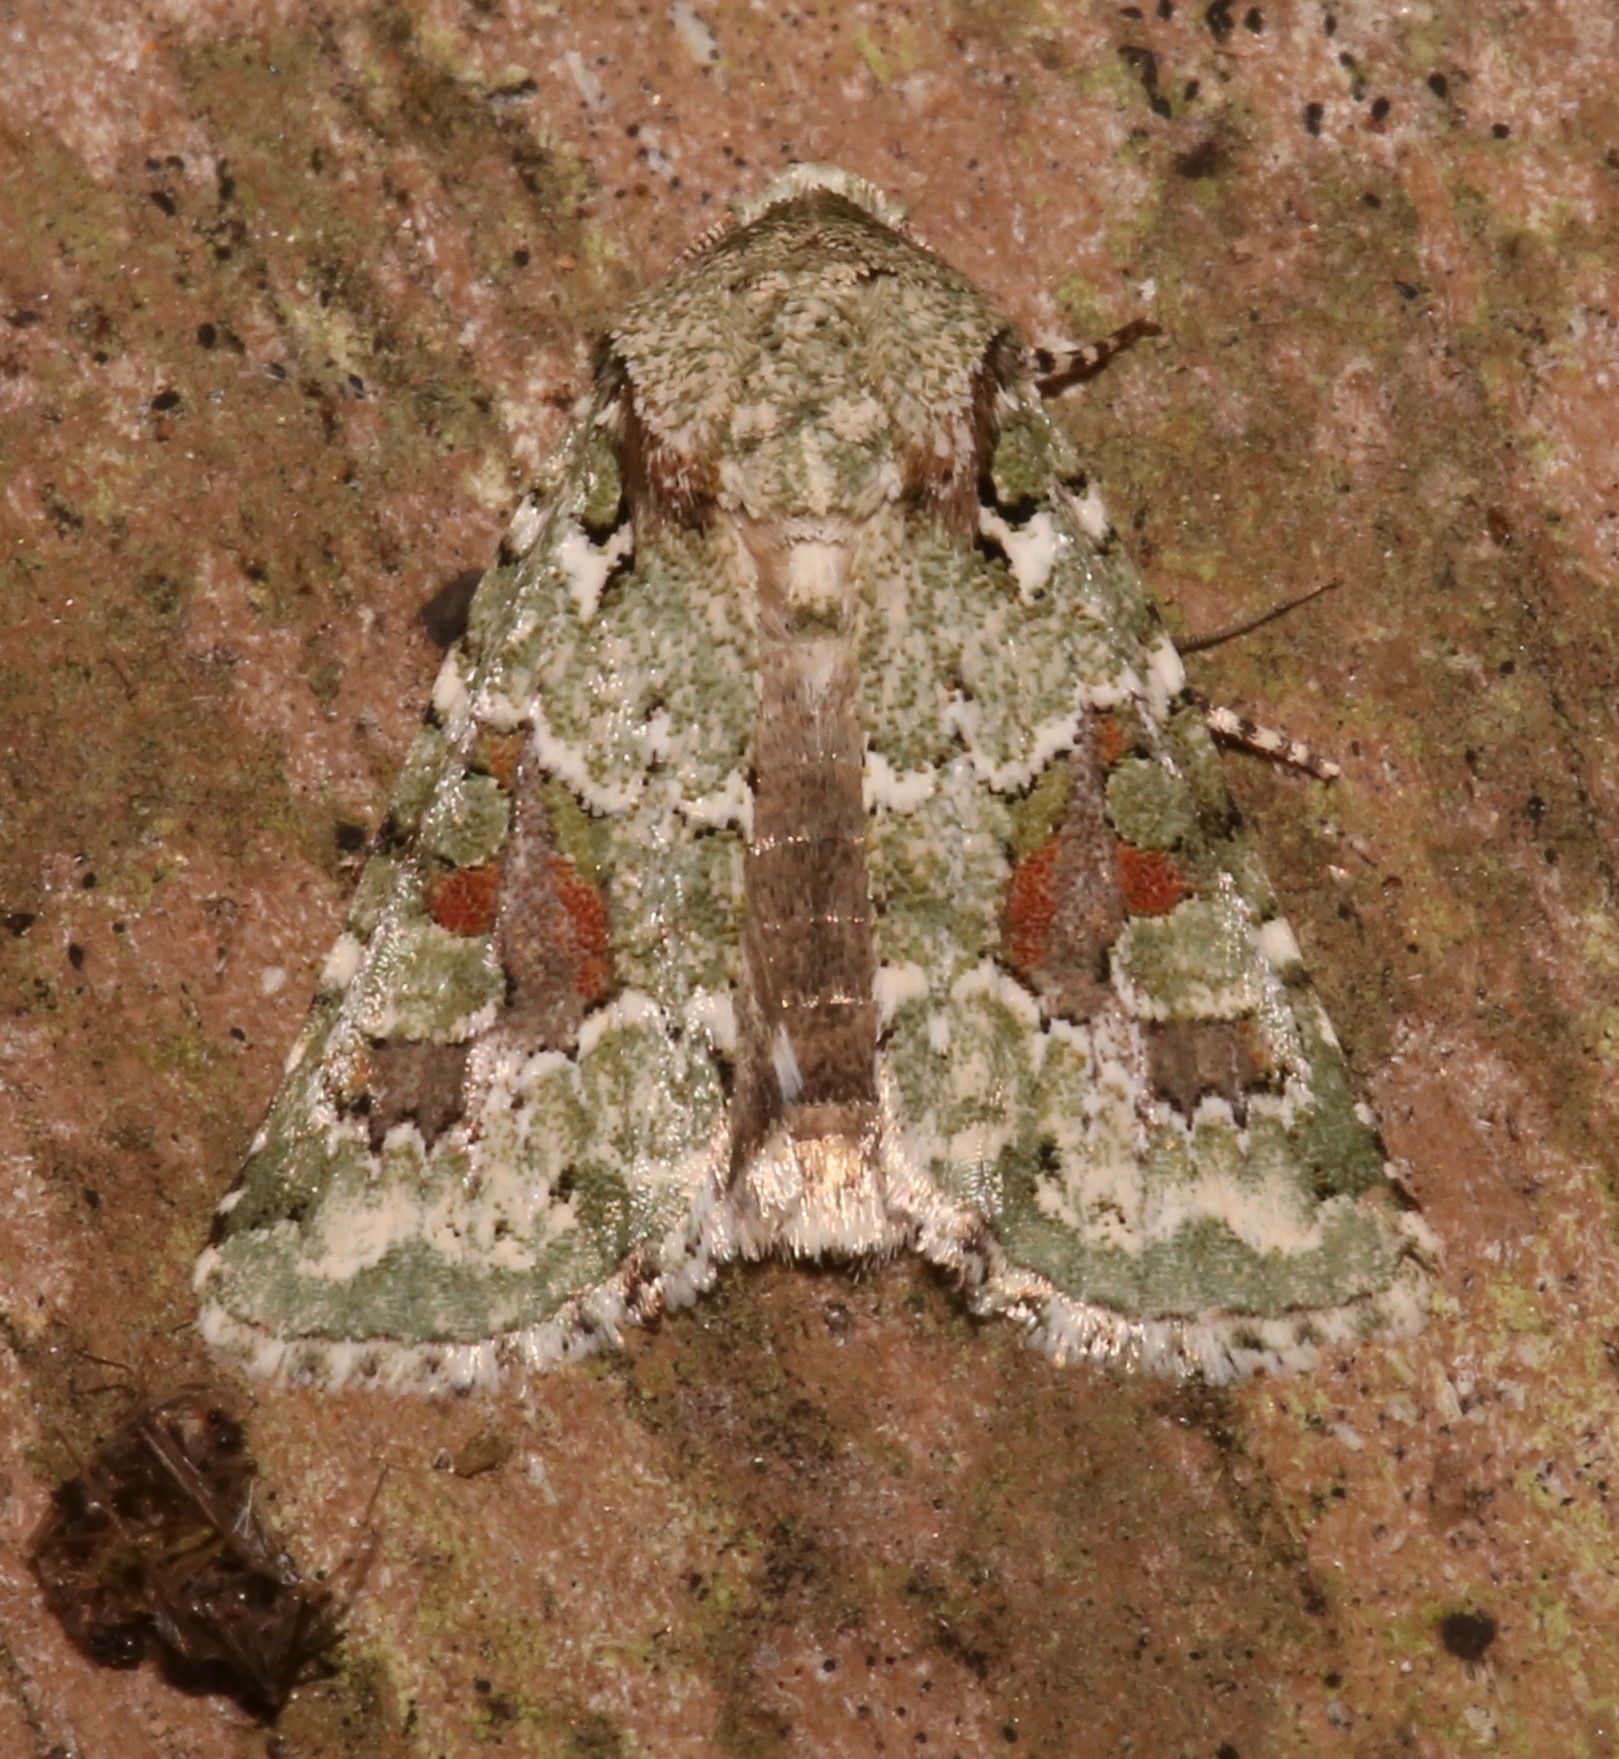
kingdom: Animalia
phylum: Arthropoda
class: Insecta
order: Lepidoptera
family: Noctuidae
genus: Lacinipolia
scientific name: Lacinipolia laudabilis
